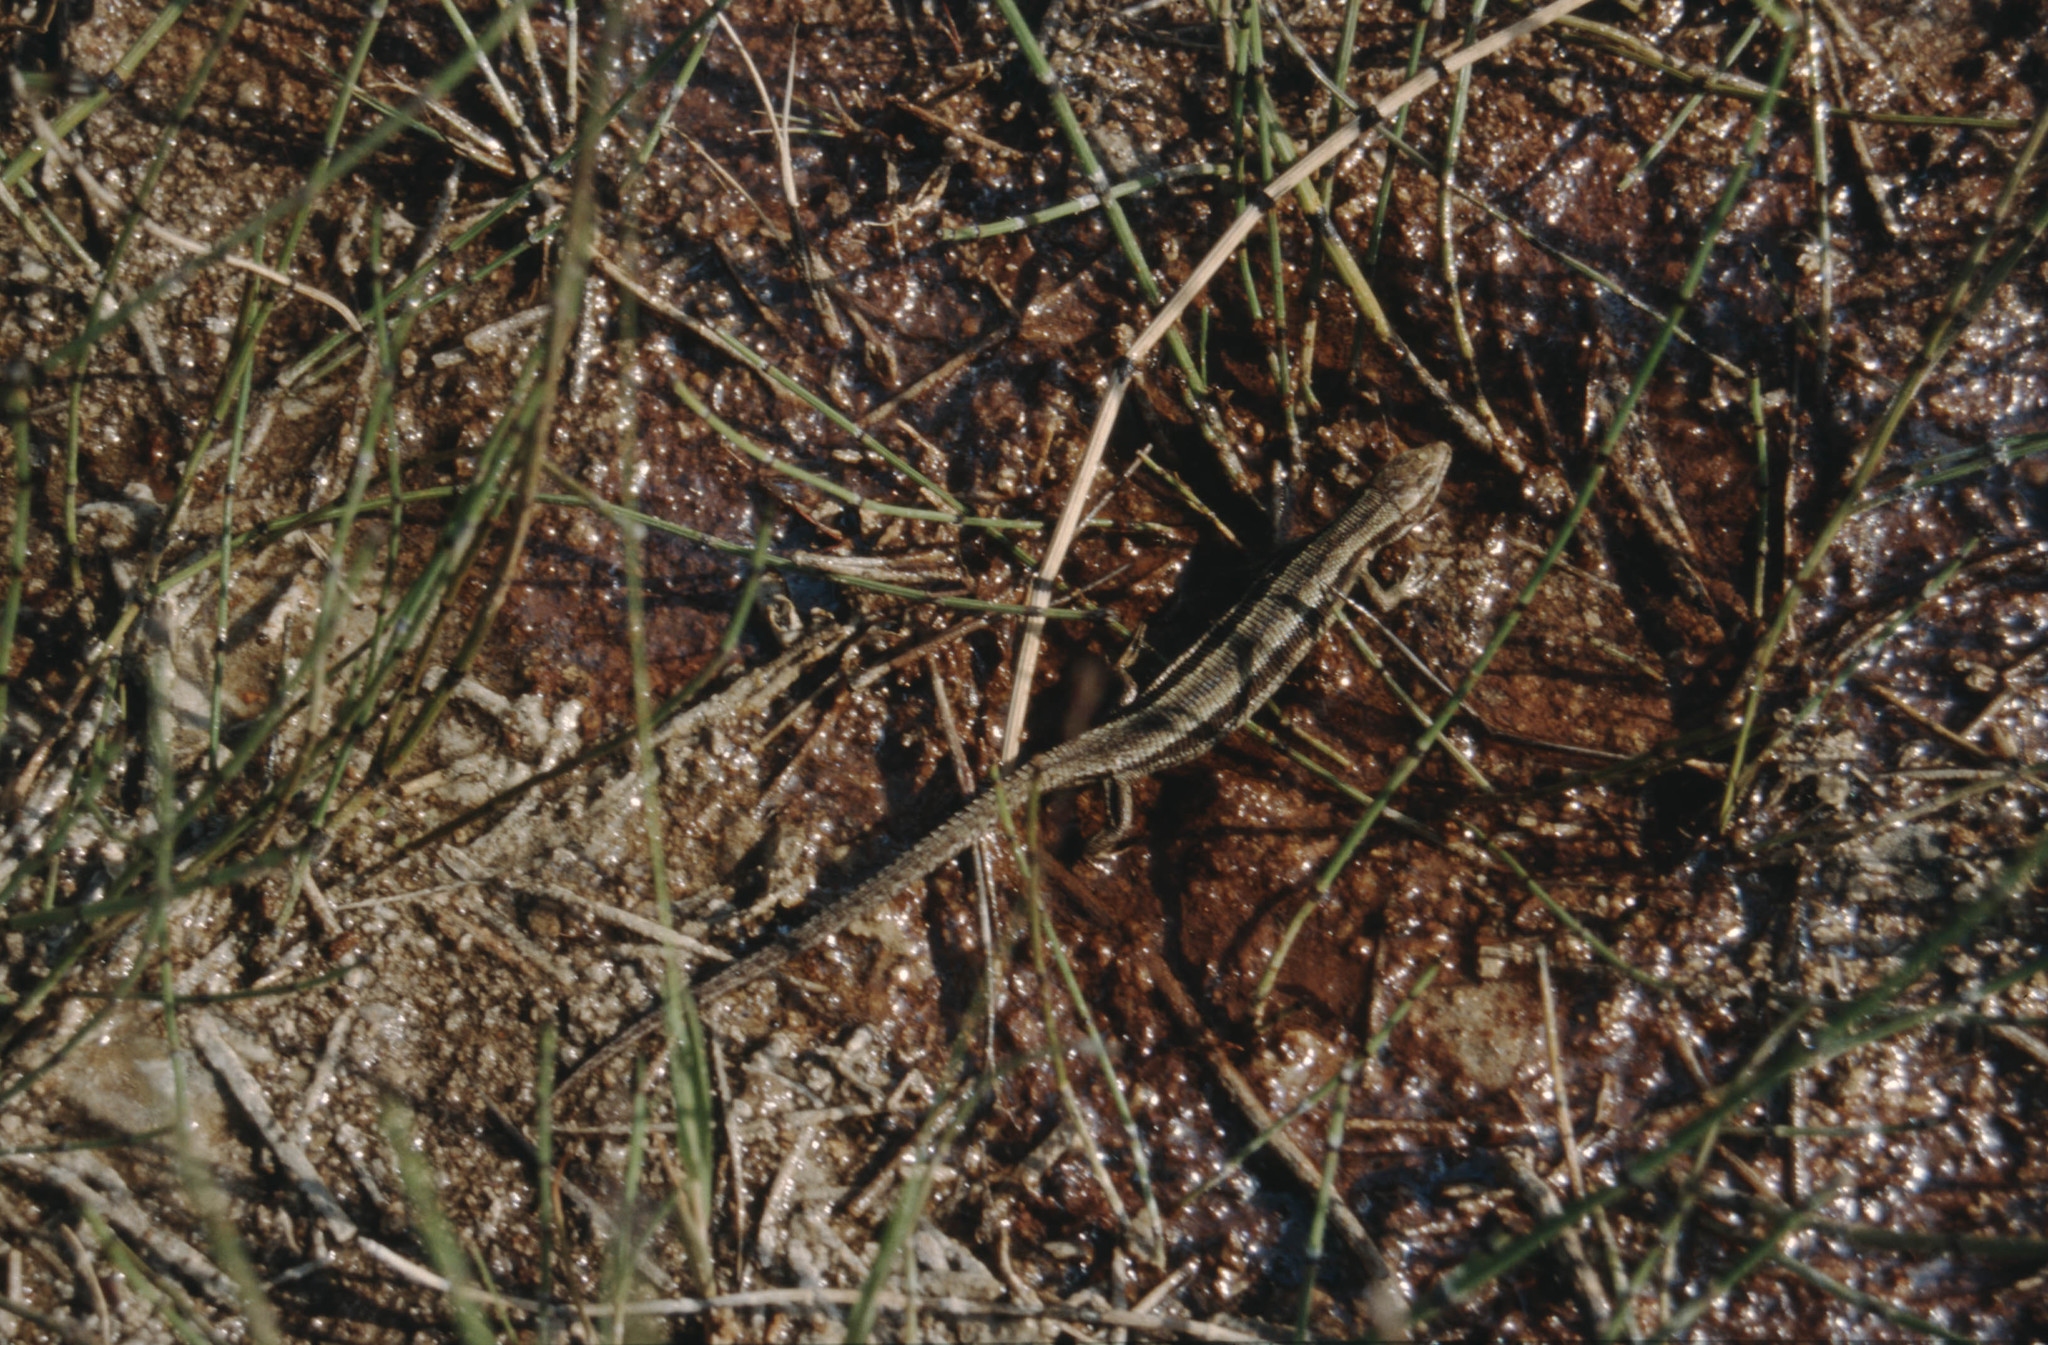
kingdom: Plantae
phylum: Tracheophyta
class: Polypodiopsida
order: Equisetales
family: Equisetaceae
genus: Equisetum
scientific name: Equisetum hyemale
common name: Rough horsetail
